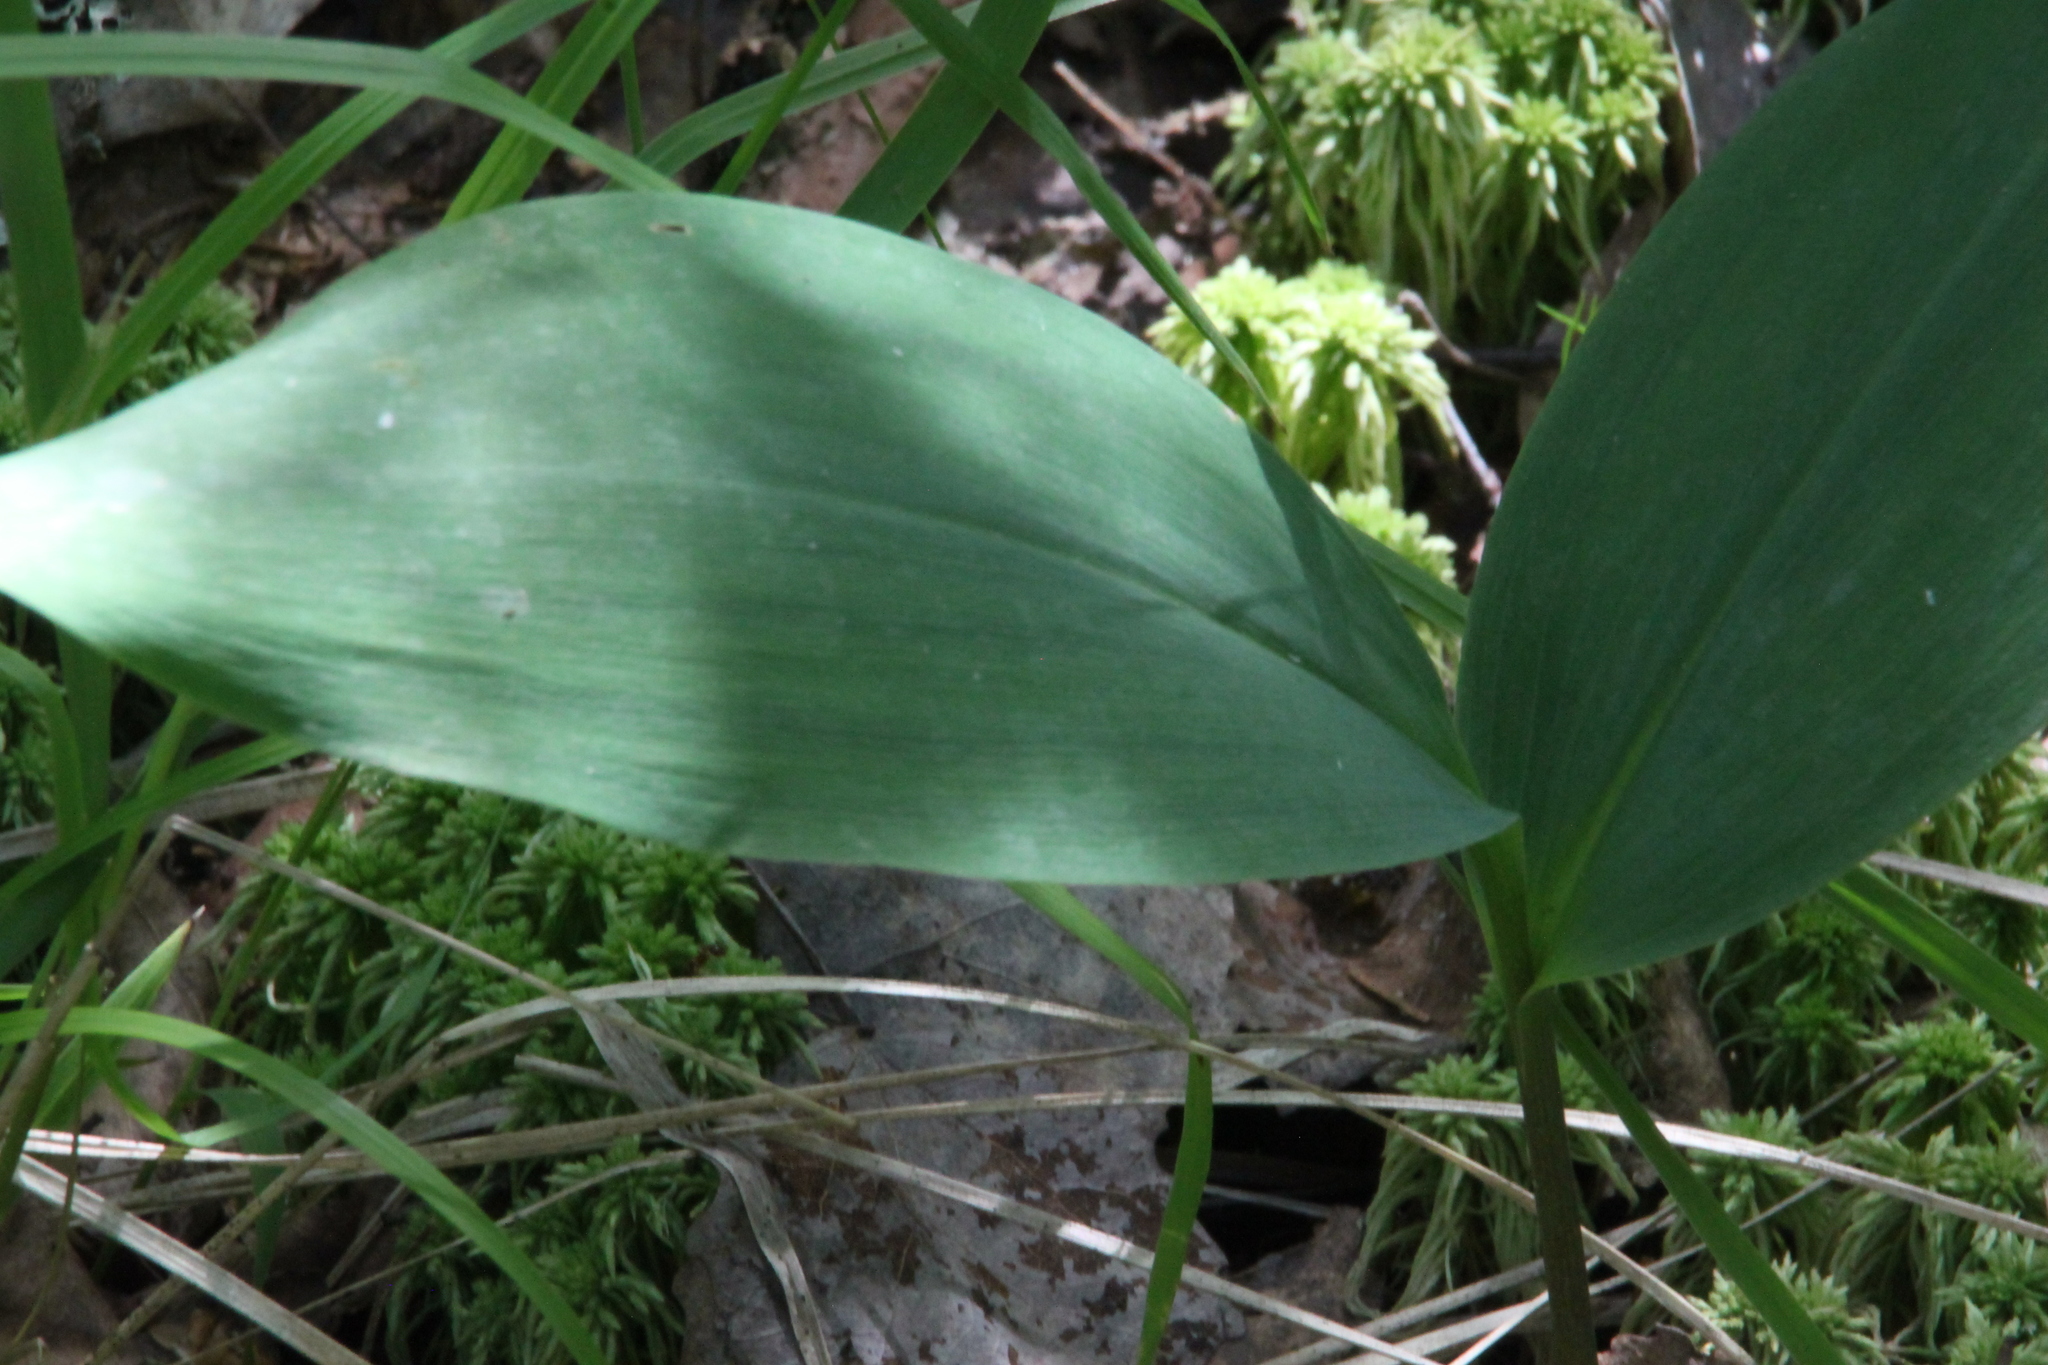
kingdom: Plantae
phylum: Tracheophyta
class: Liliopsida
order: Asparagales
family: Asparagaceae
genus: Convallaria
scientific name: Convallaria majalis
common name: Lily-of-the-valley
